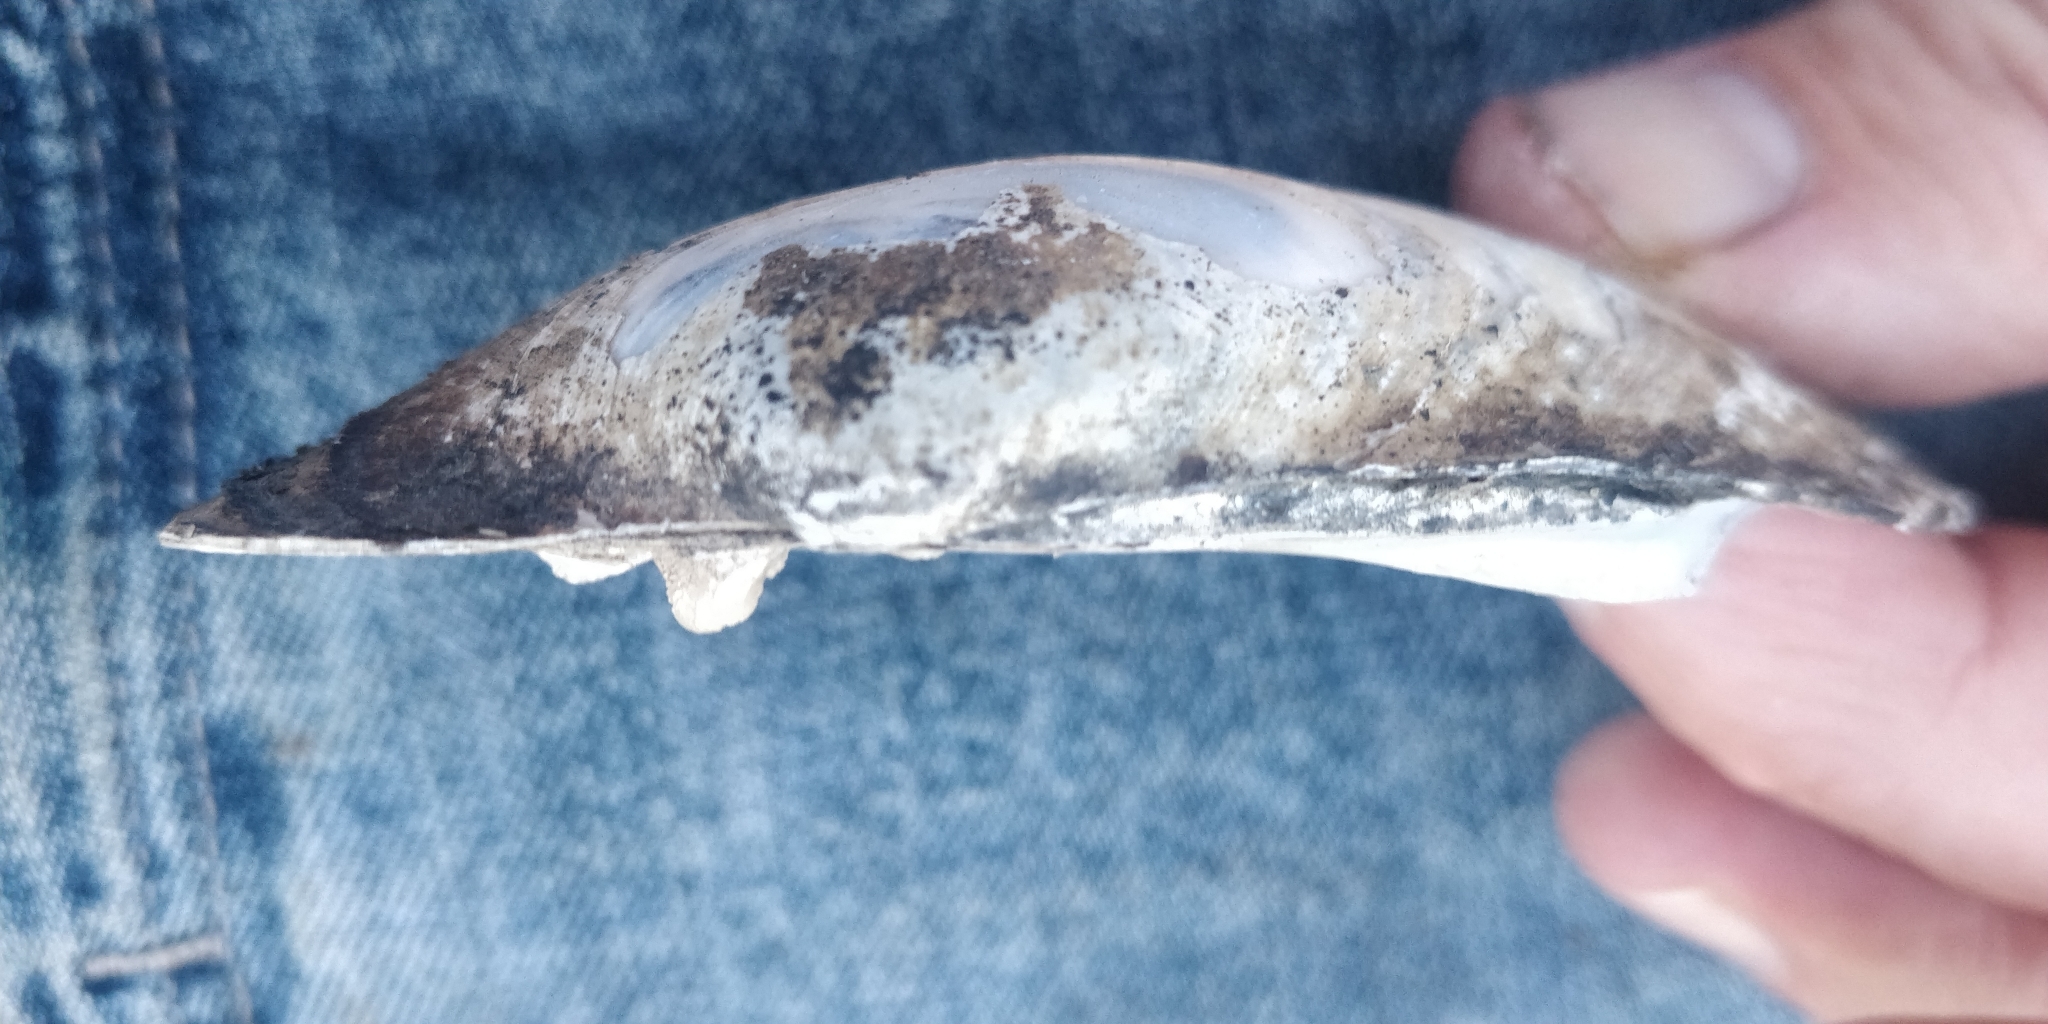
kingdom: Animalia
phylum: Mollusca
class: Bivalvia
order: Unionida
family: Unionidae
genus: Lampsilis
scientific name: Lampsilis cardium
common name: Plain pocketbook
